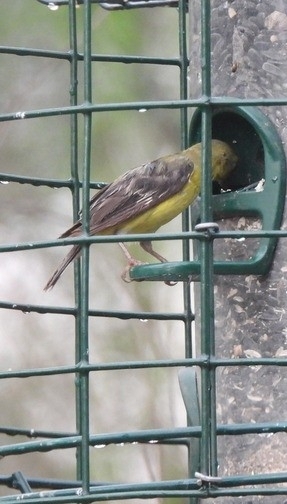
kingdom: Animalia
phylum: Chordata
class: Aves
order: Passeriformes
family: Fringillidae
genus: Spinus
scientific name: Spinus psaltria
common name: Lesser goldfinch
